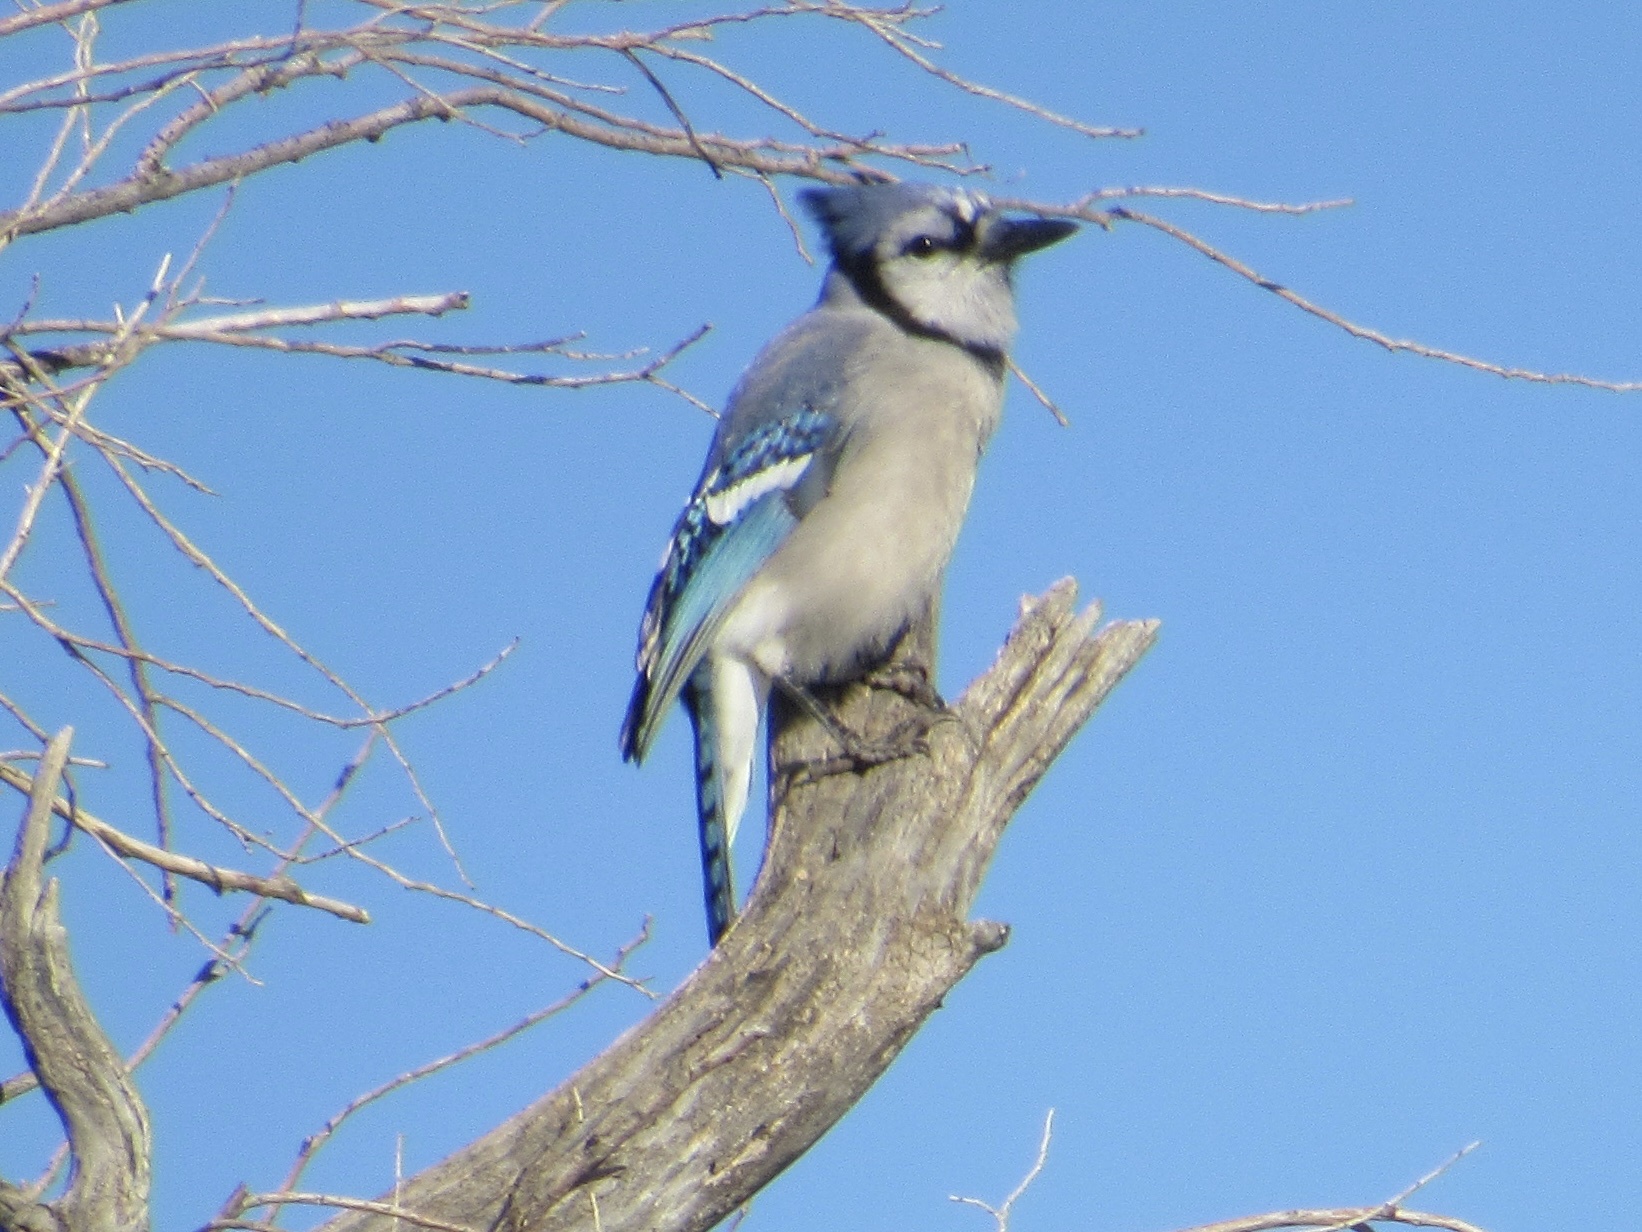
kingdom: Animalia
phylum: Chordata
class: Aves
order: Passeriformes
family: Corvidae
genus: Cyanocitta
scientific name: Cyanocitta cristata
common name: Blue jay
